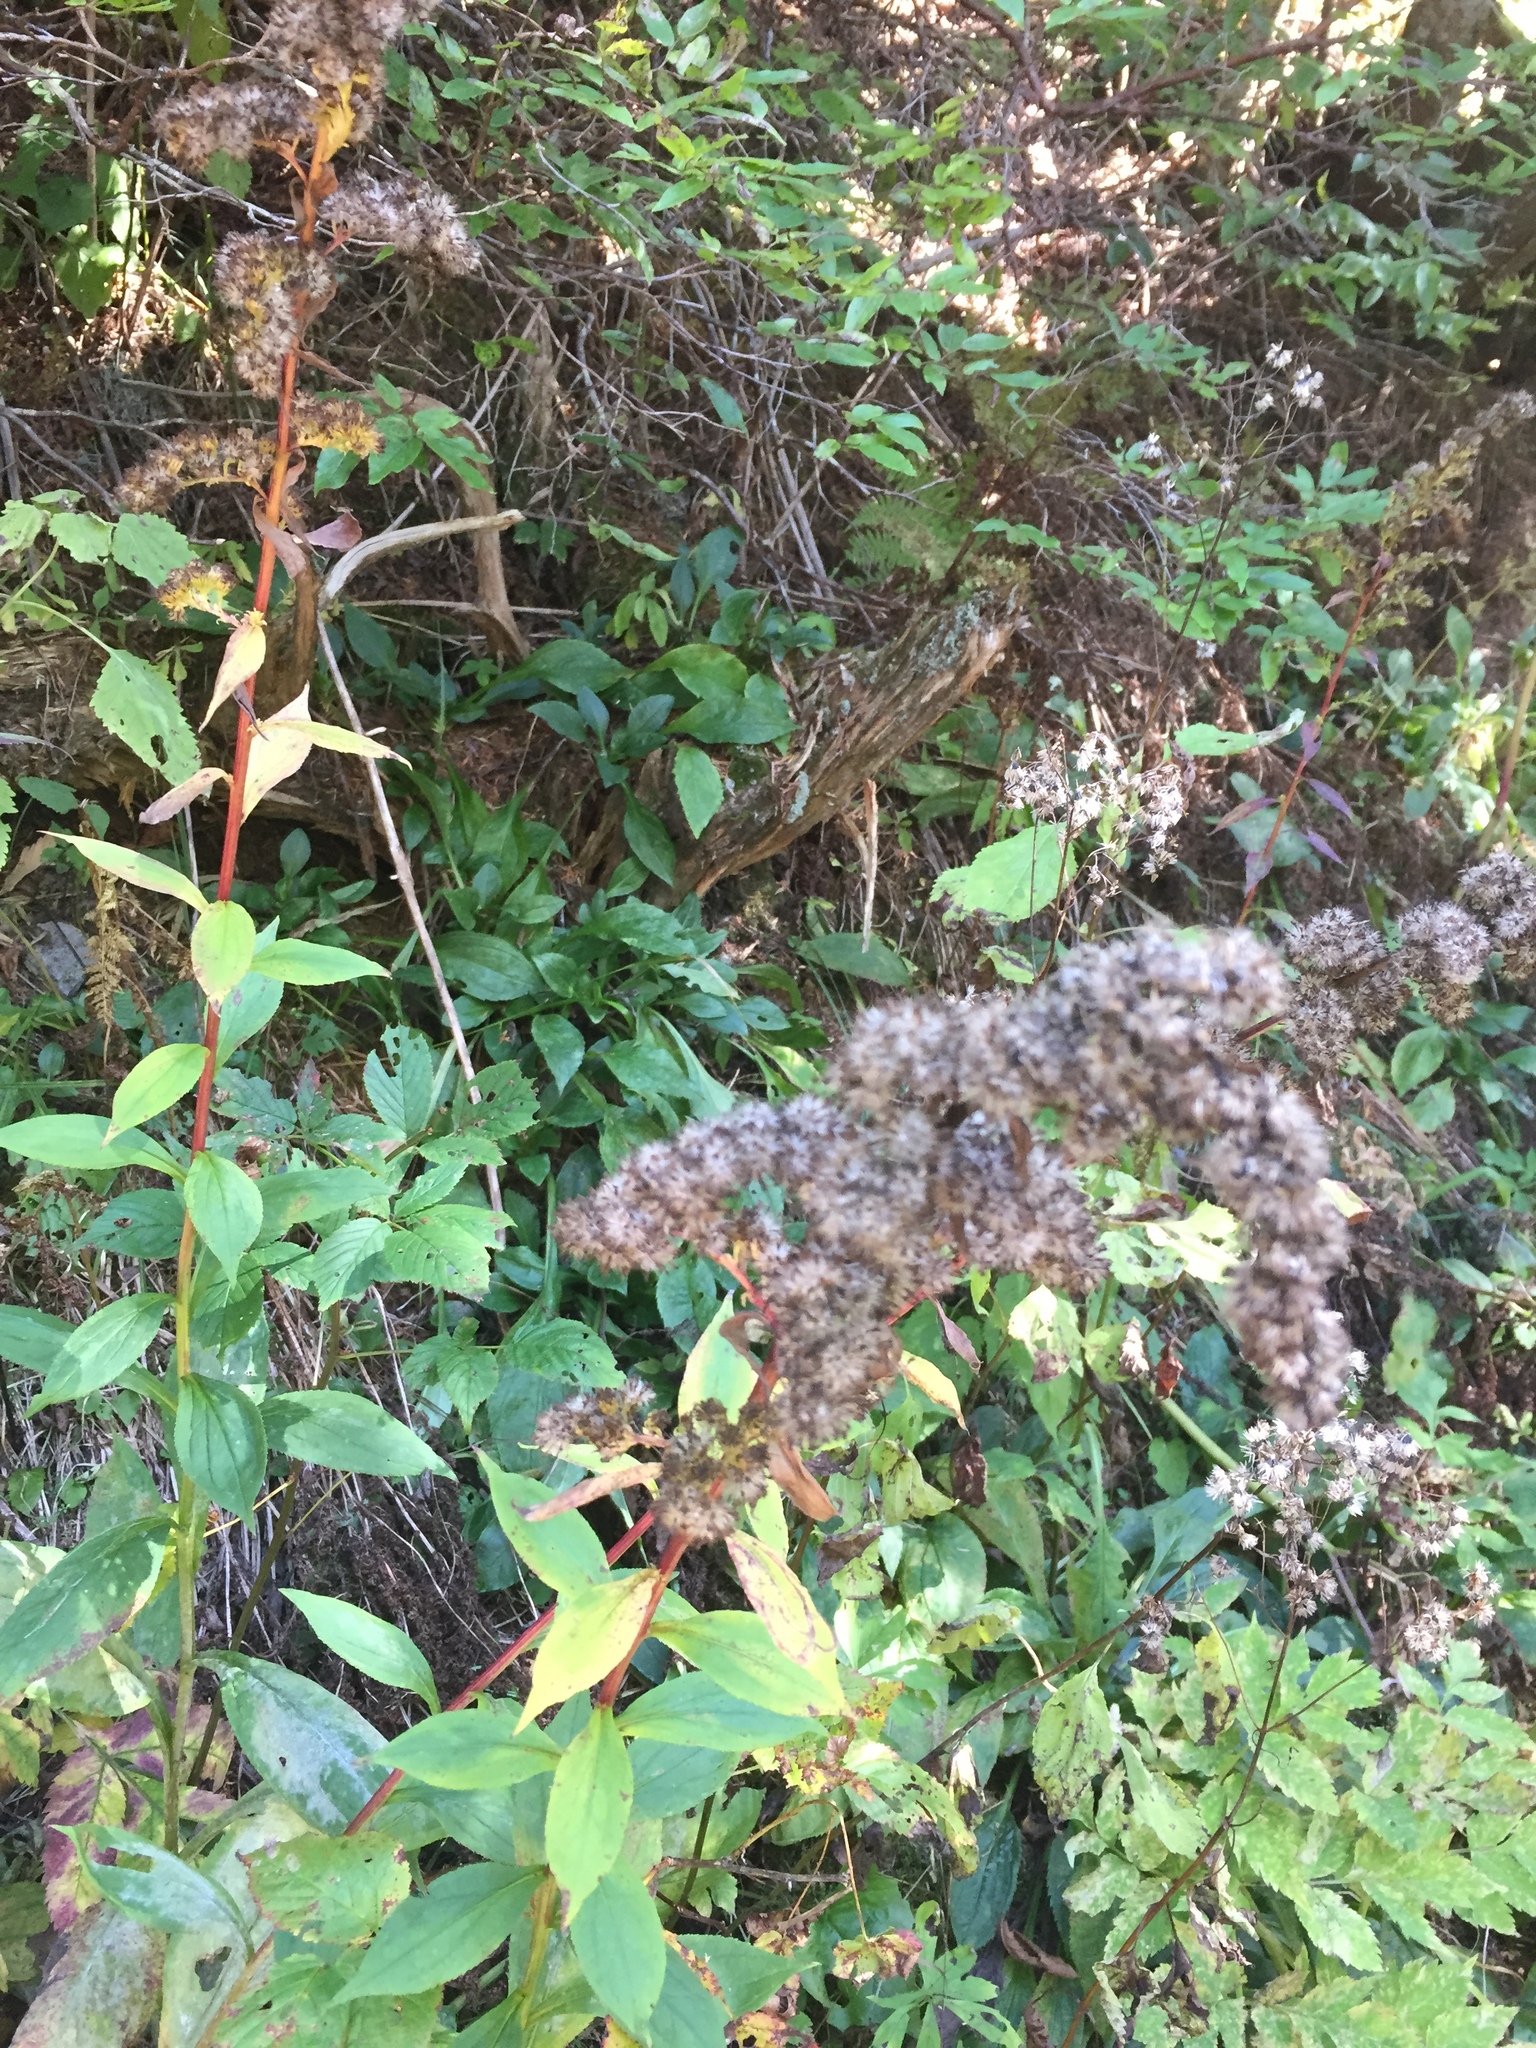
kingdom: Plantae
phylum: Tracheophyta
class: Magnoliopsida
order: Asterales
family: Asteraceae
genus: Solidago
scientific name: Solidago patula
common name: Rough-leaf goldenrod
